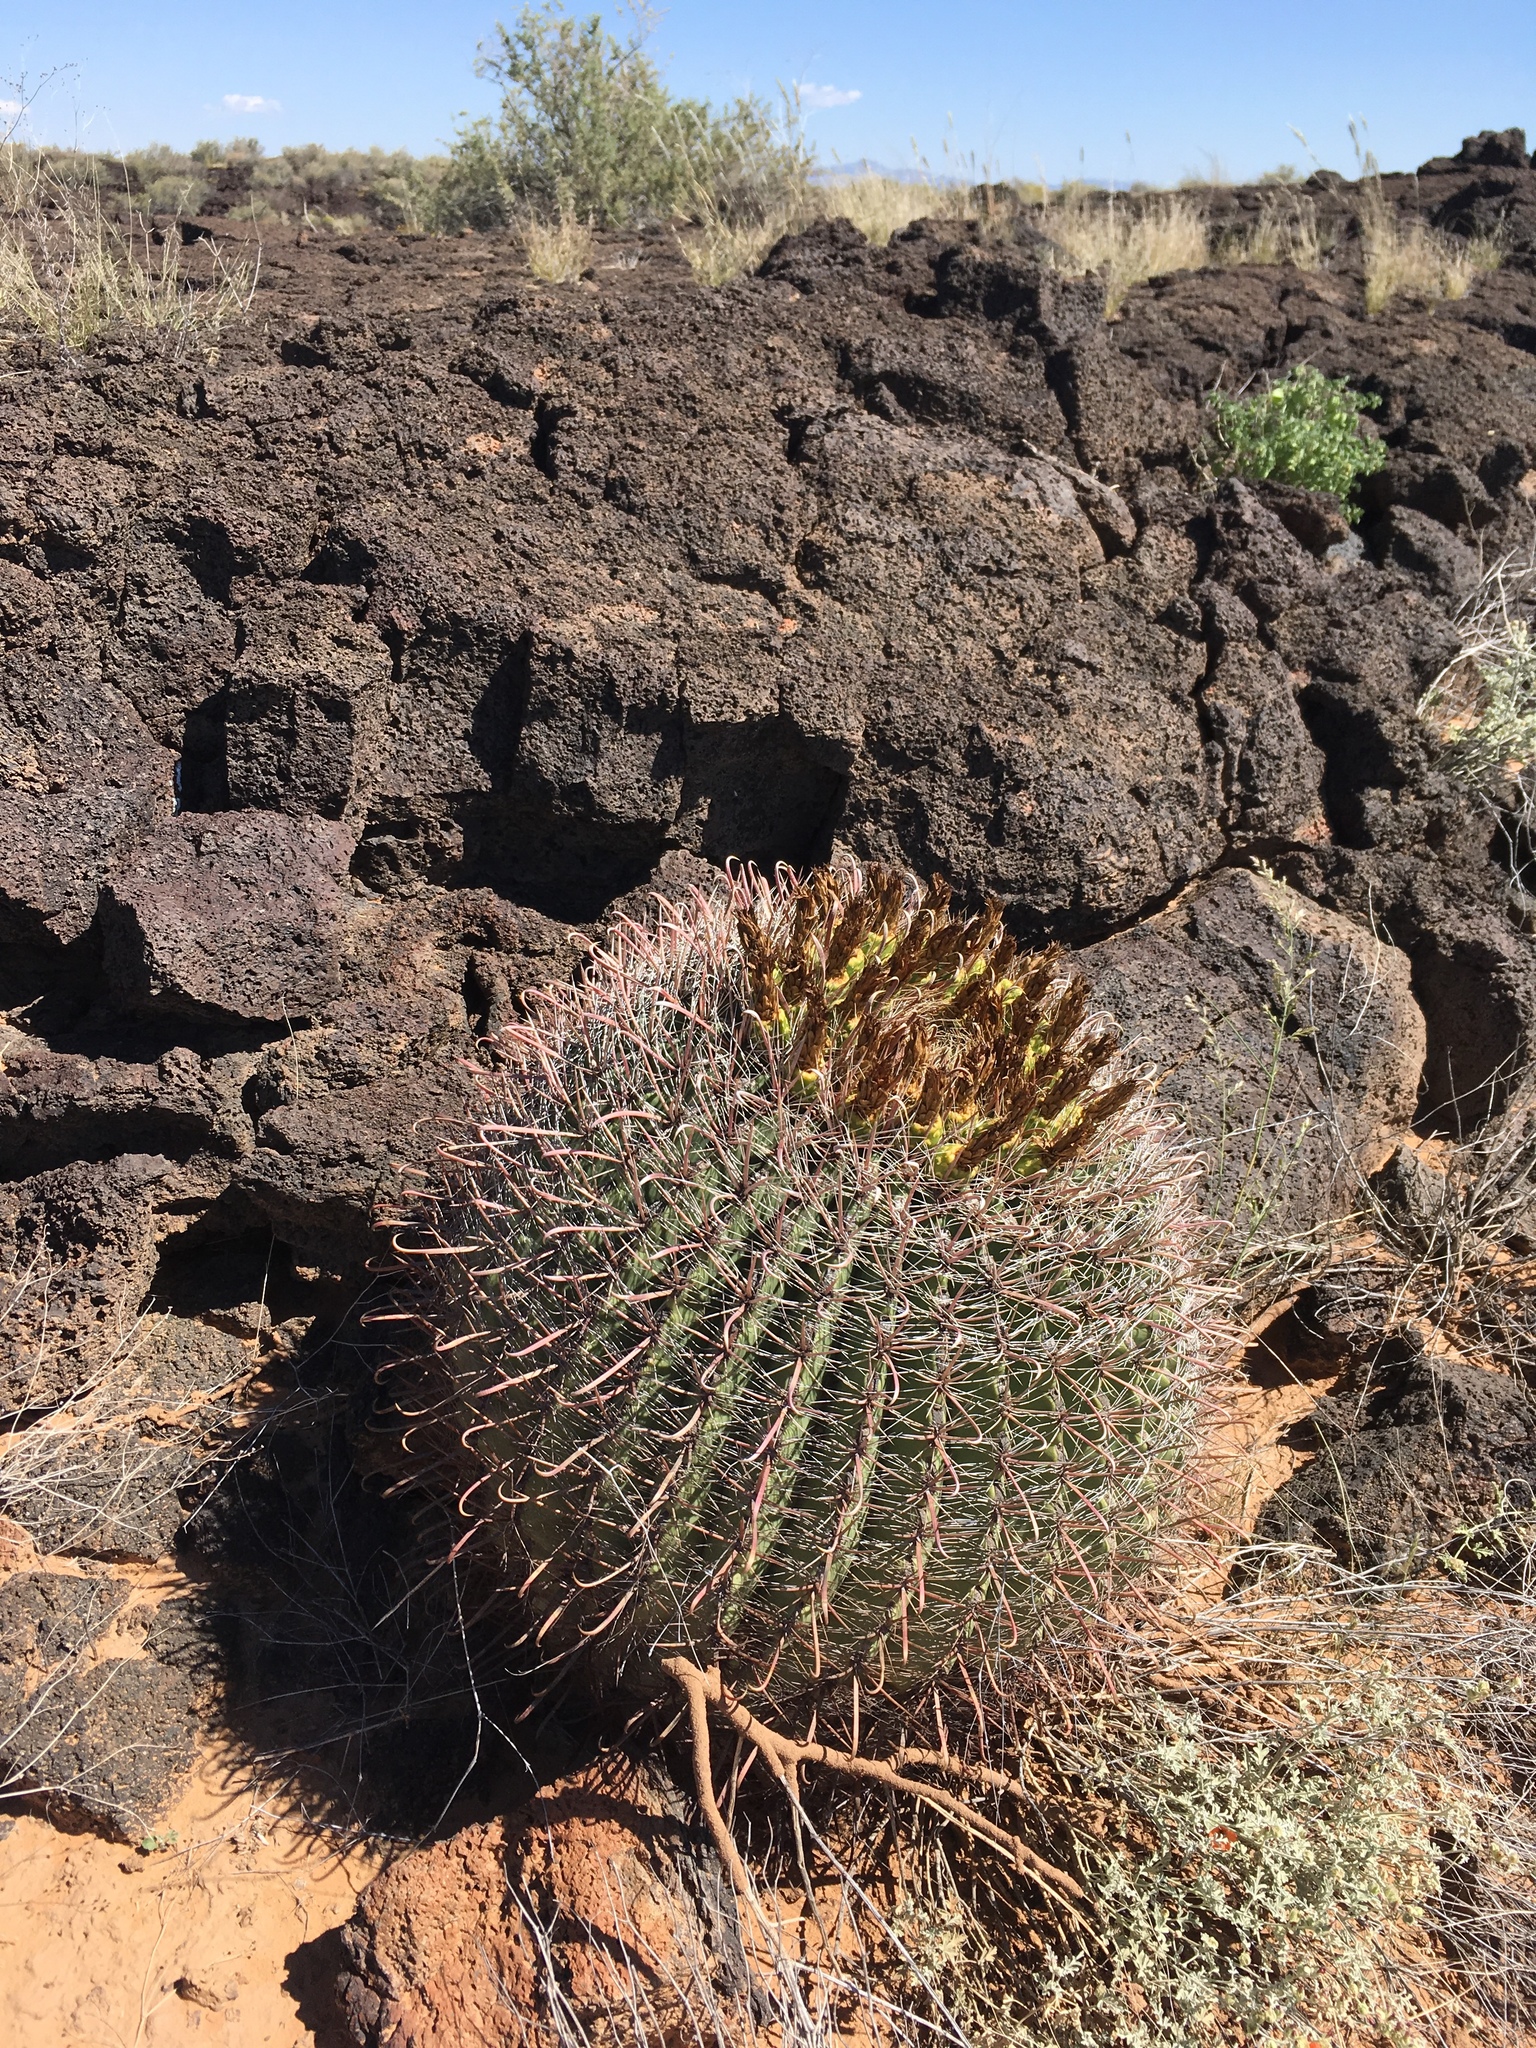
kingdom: Plantae
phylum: Tracheophyta
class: Magnoliopsida
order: Caryophyllales
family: Cactaceae
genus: Ferocactus
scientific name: Ferocactus wislizeni
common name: Candy barrel cactus
